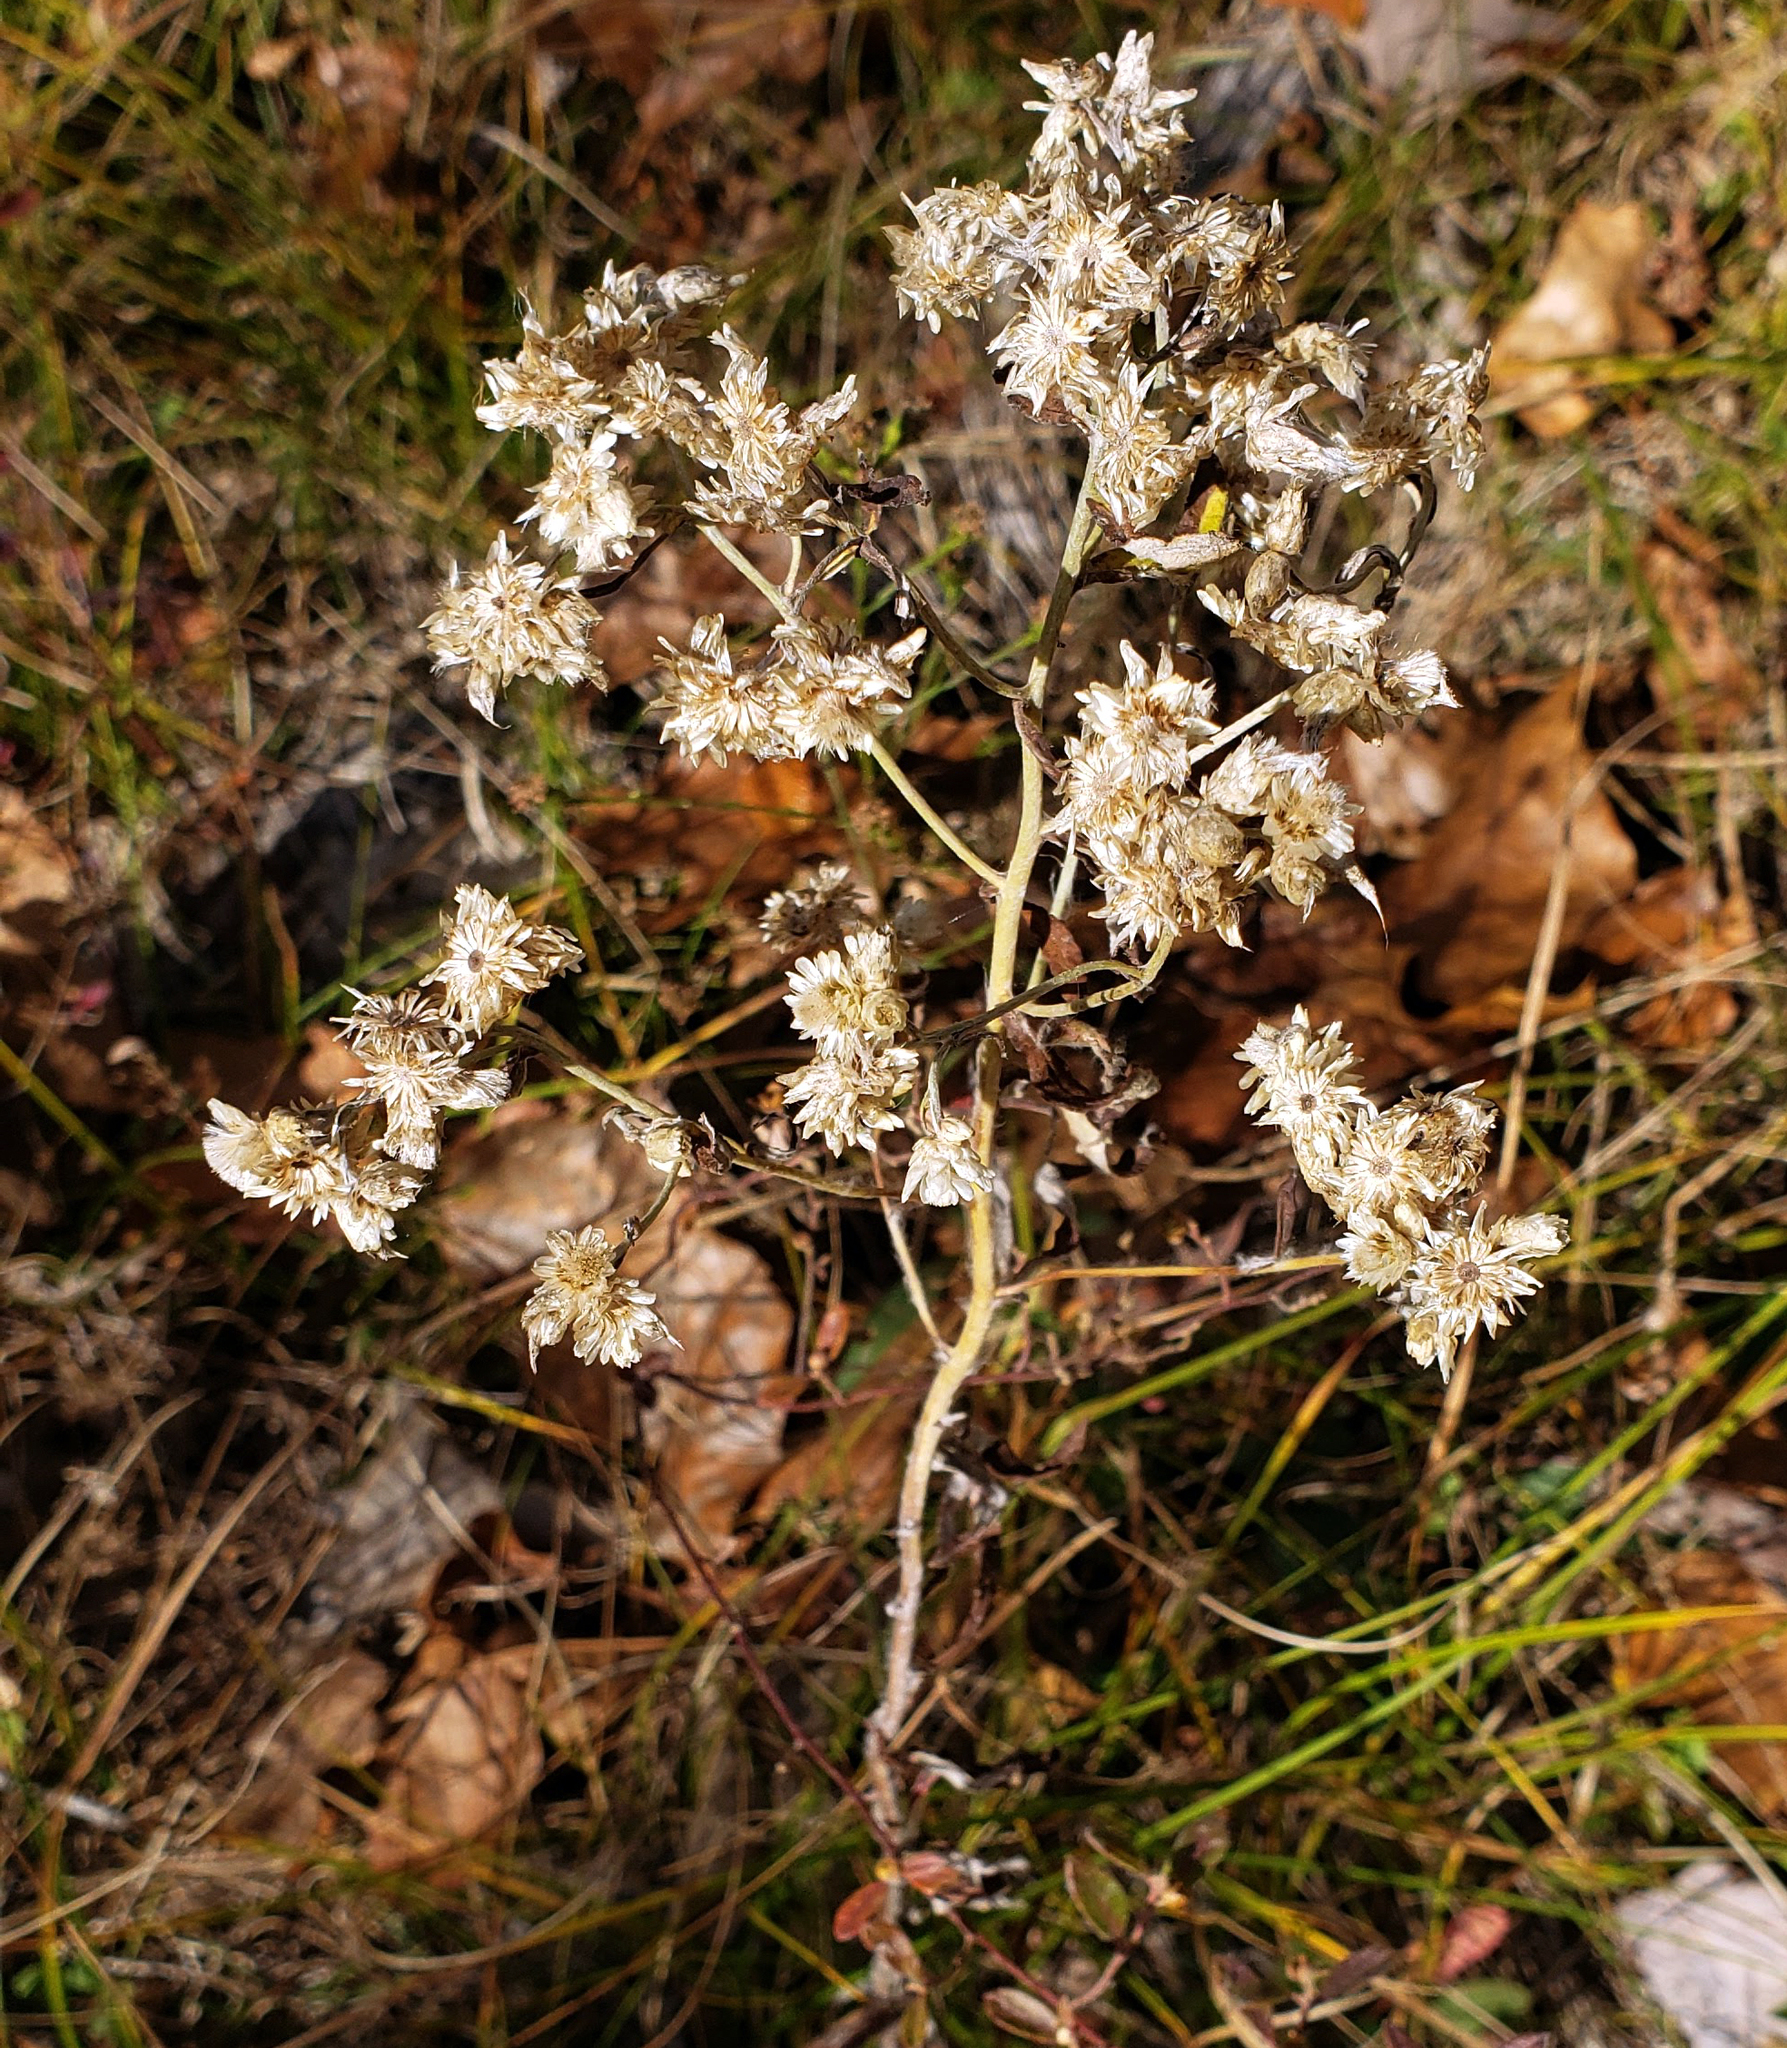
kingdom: Plantae
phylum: Tracheophyta
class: Magnoliopsida
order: Asterales
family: Asteraceae
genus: Pseudognaphalium
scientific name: Pseudognaphalium obtusifolium
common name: Eastern rabbit-tobacco
